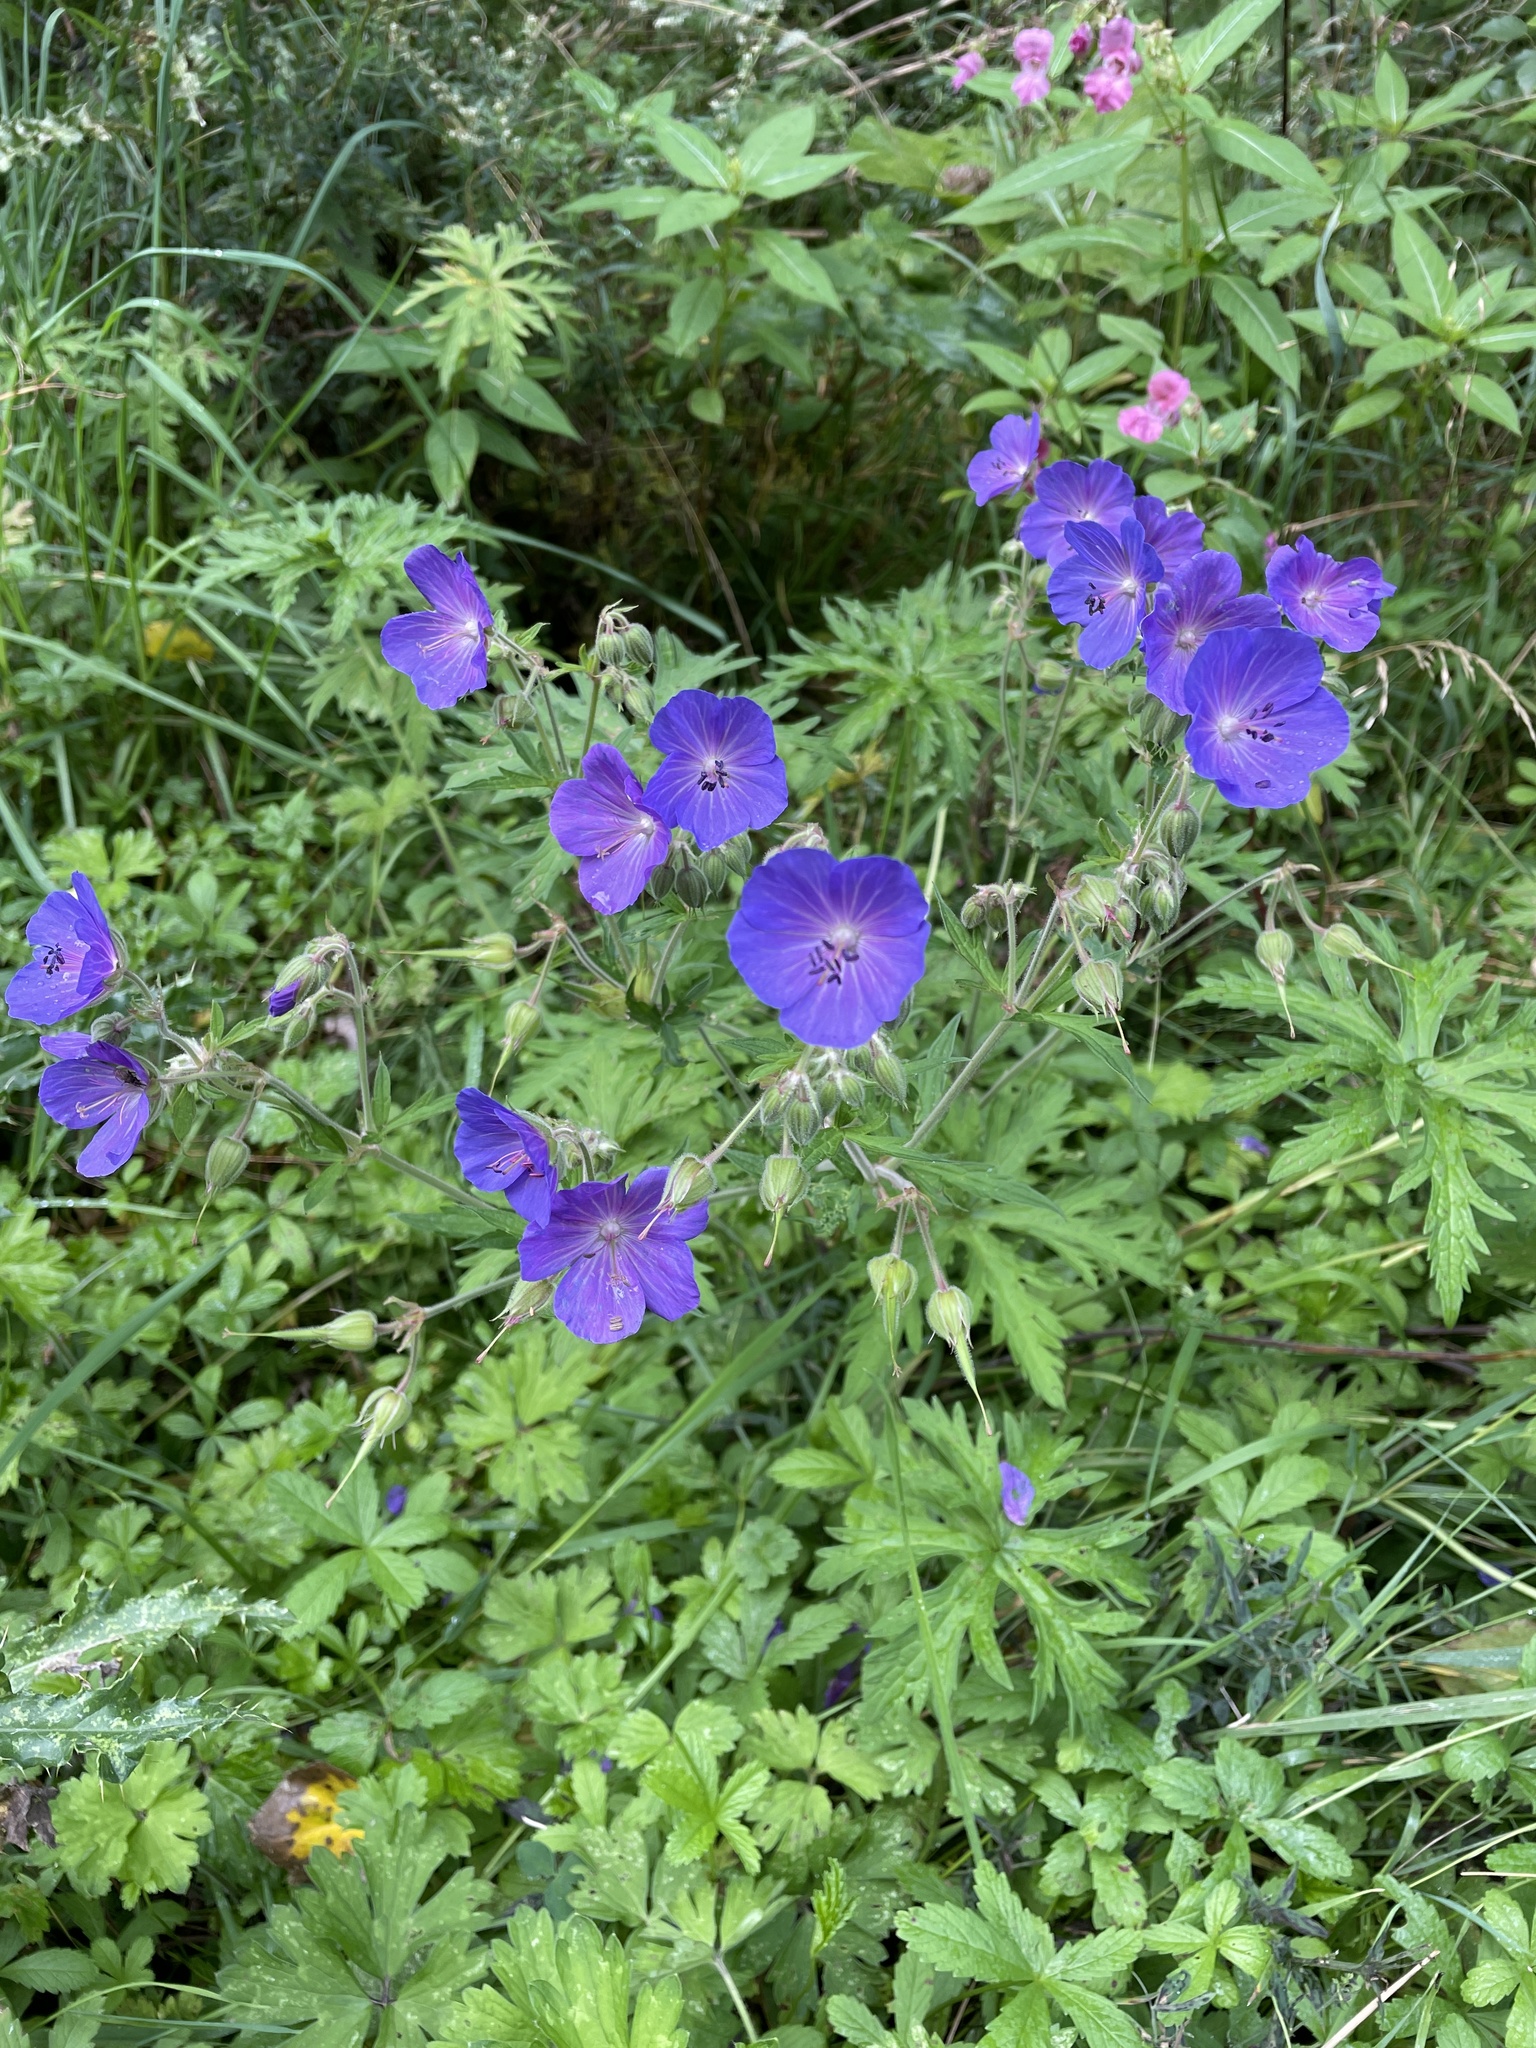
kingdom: Plantae
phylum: Tracheophyta
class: Magnoliopsida
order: Geraniales
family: Geraniaceae
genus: Geranium
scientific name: Geranium pratense
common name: Meadow crane's-bill
